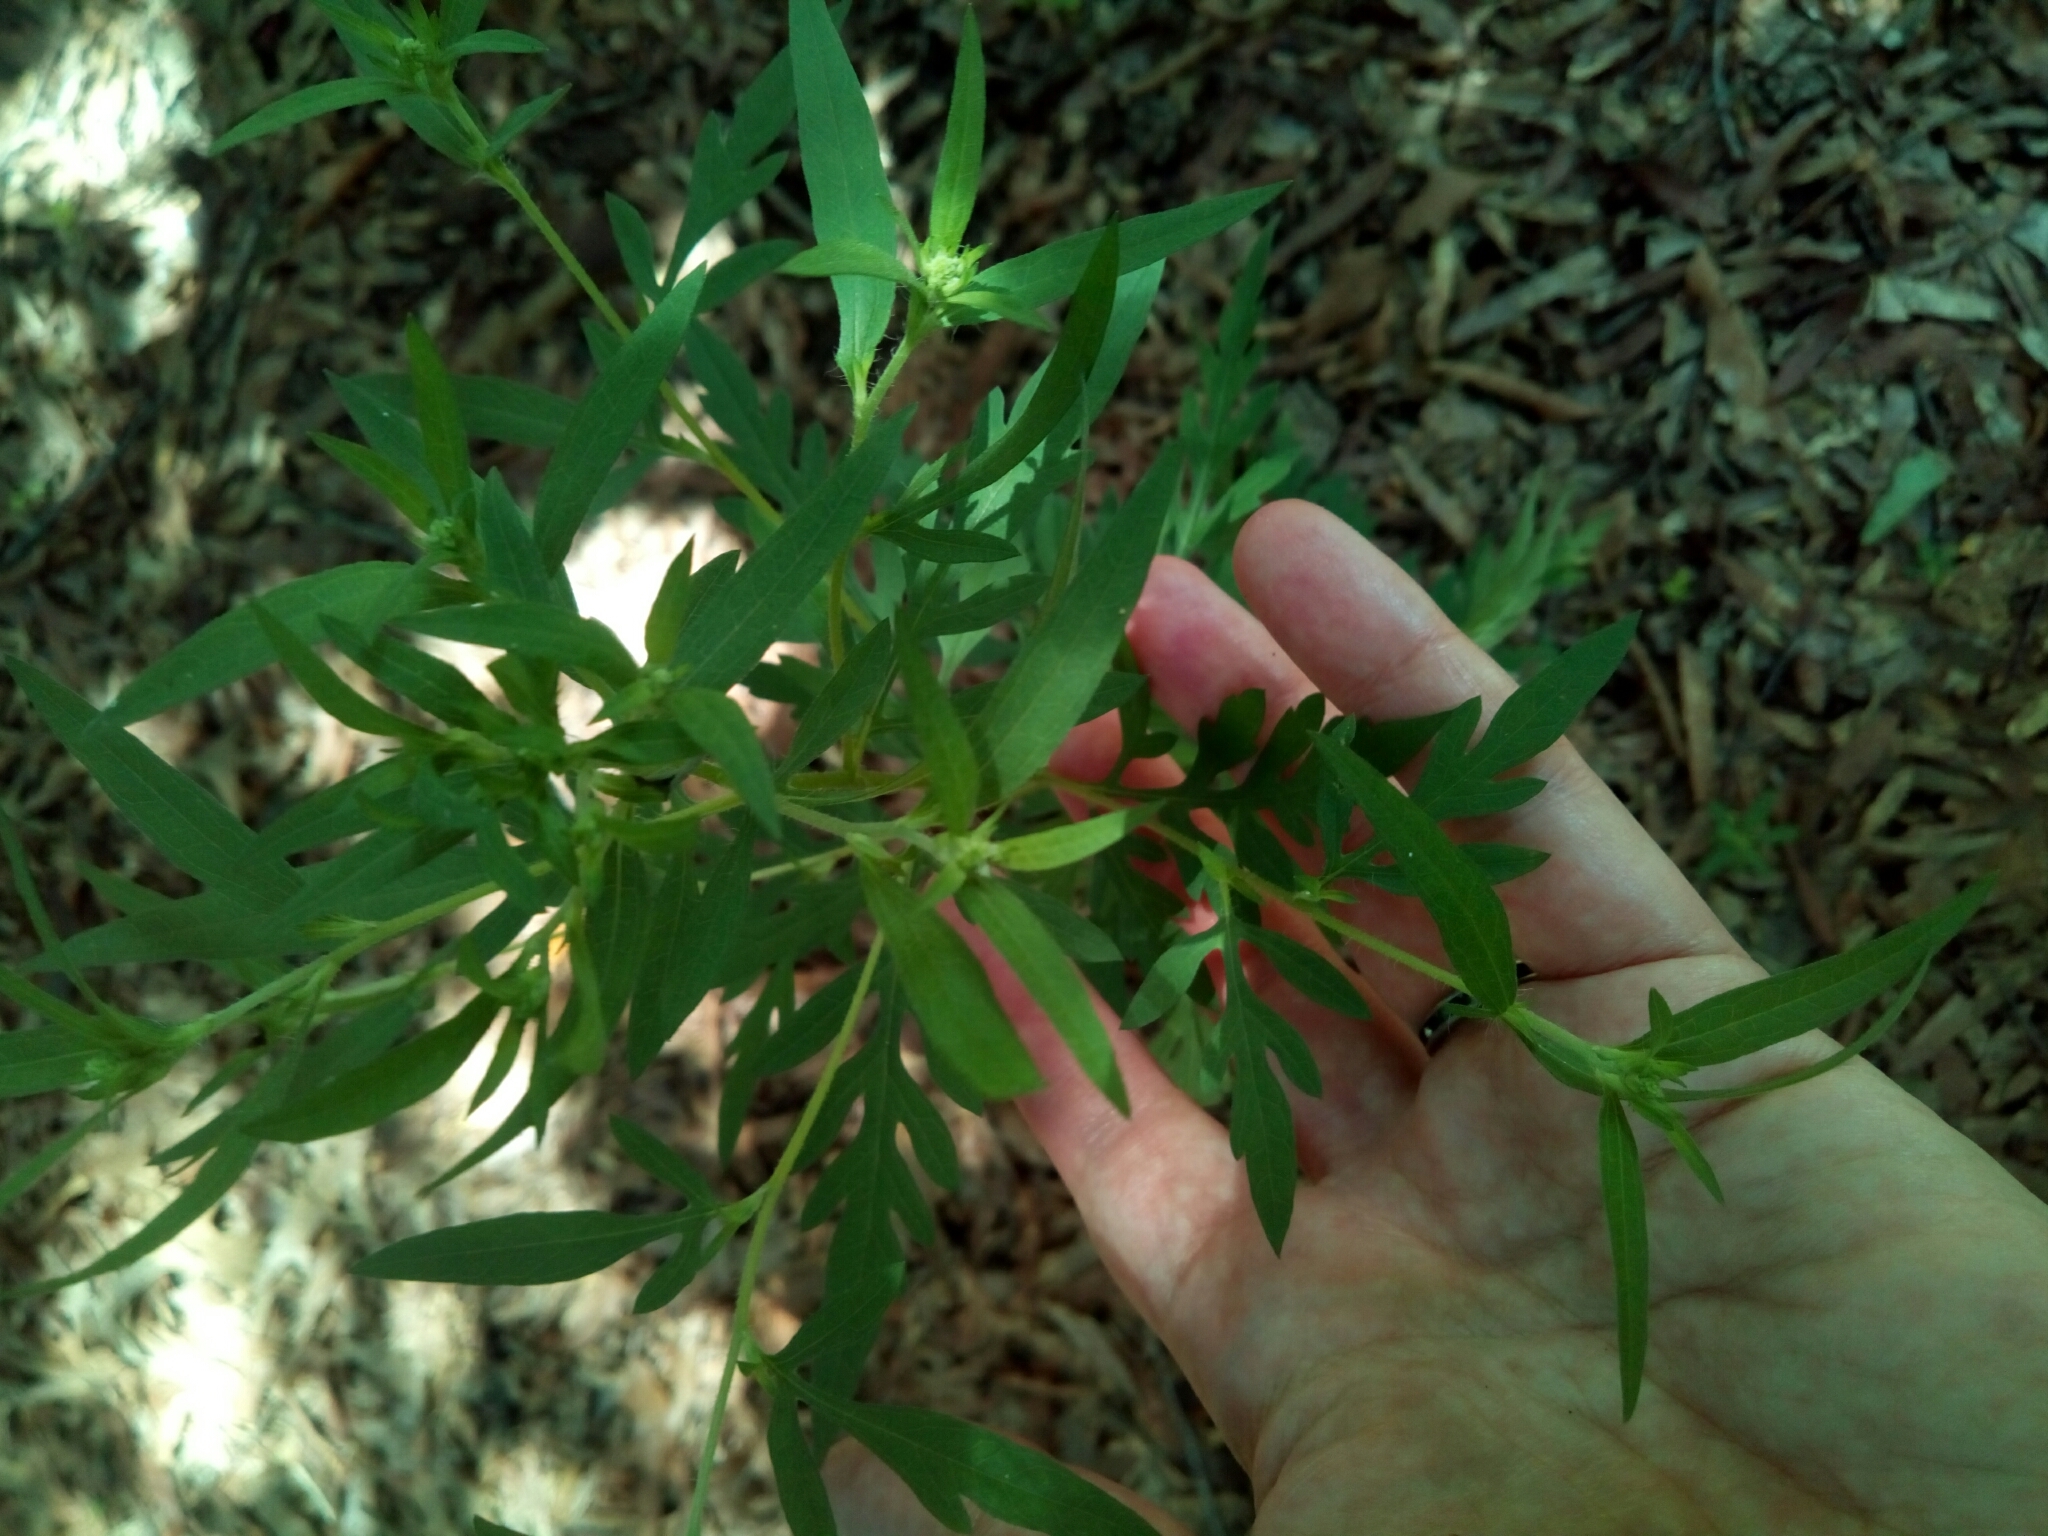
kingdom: Plantae
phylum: Tracheophyta
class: Magnoliopsida
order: Asterales
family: Asteraceae
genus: Ambrosia
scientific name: Ambrosia artemisiifolia
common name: Annual ragweed
